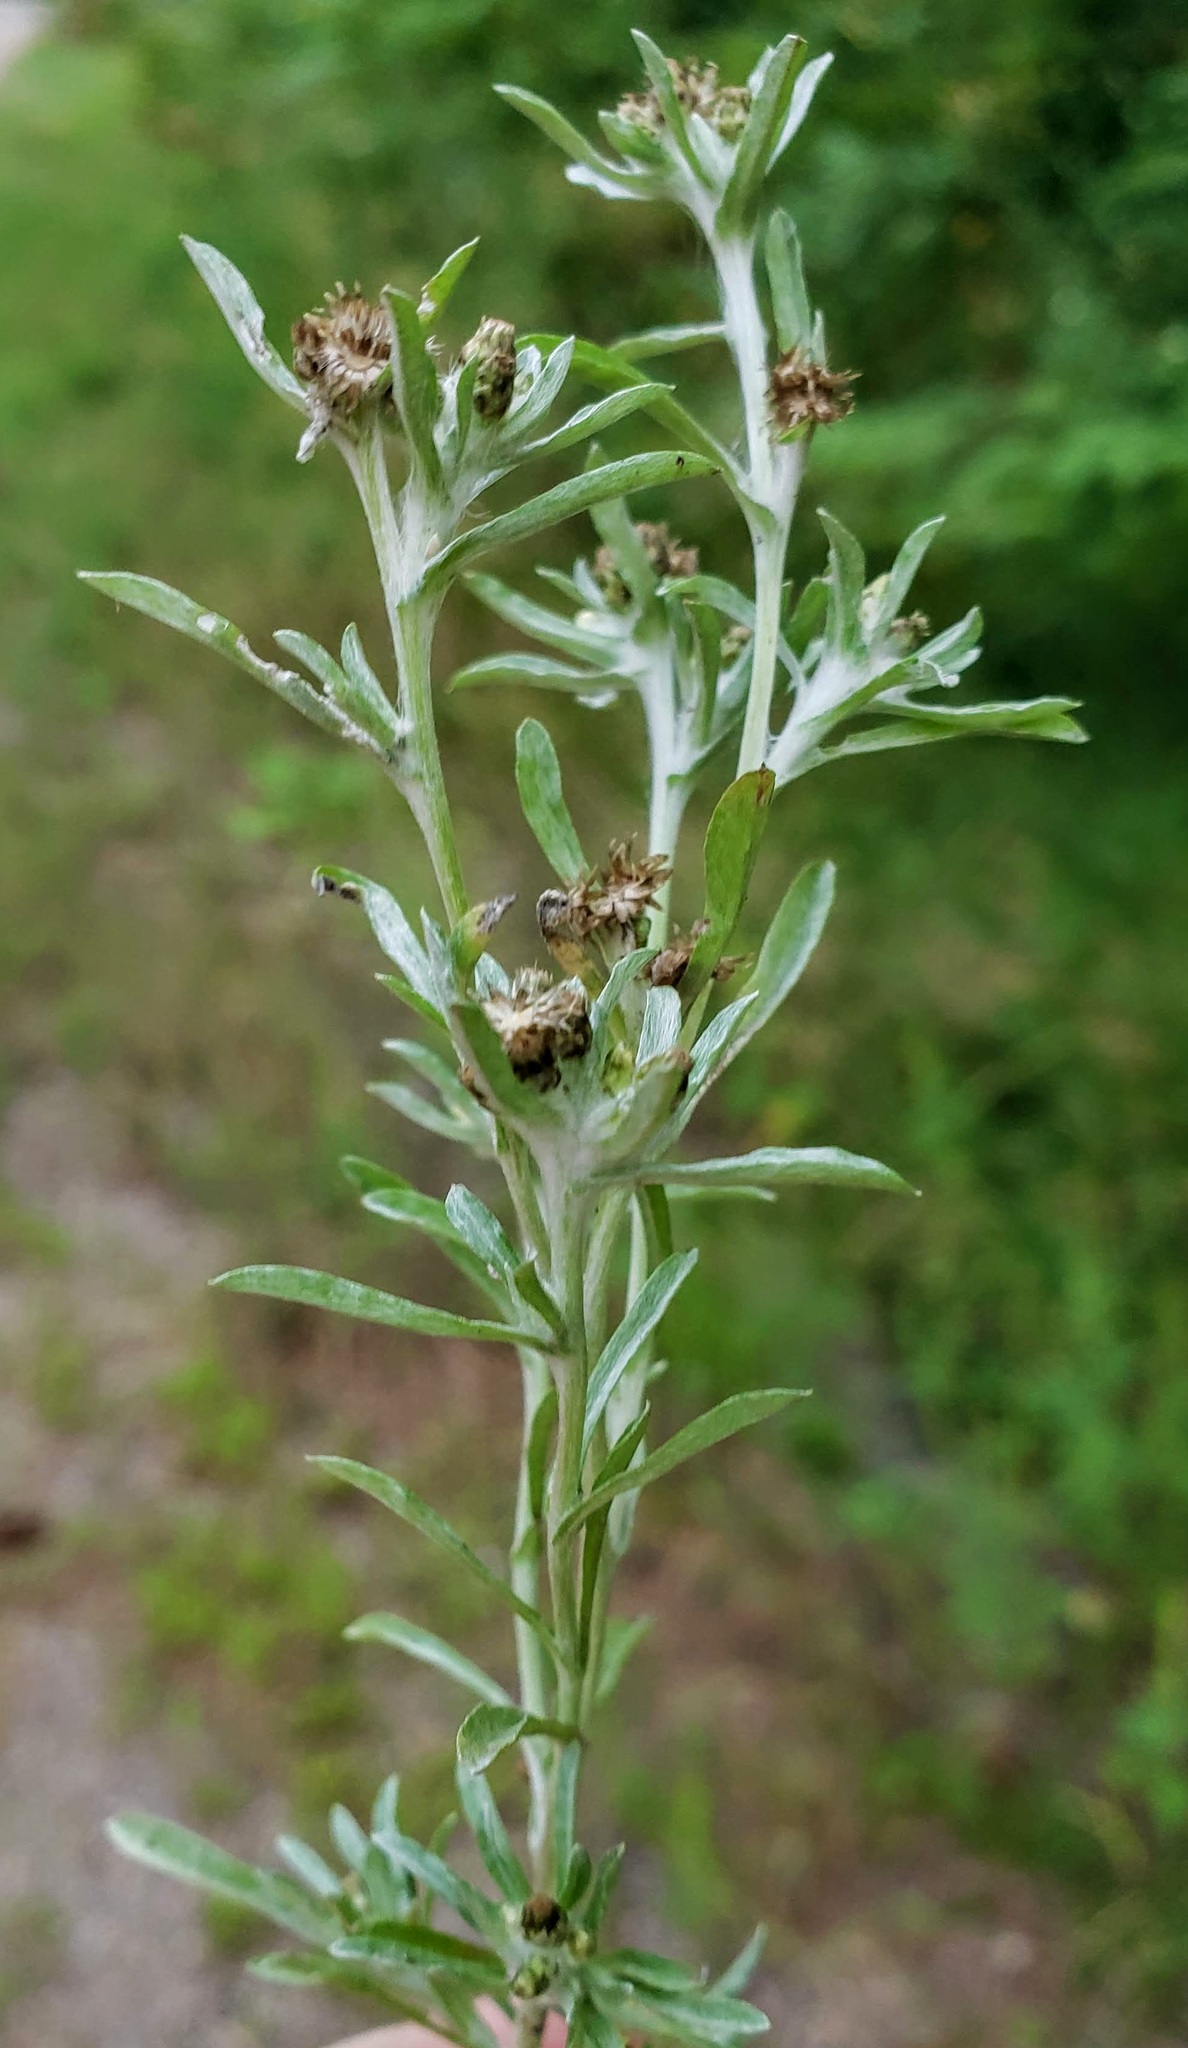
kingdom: Plantae
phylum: Tracheophyta
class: Magnoliopsida
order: Asterales
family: Asteraceae
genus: Gnaphalium
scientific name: Gnaphalium uliginosum
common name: Marsh cudweed
